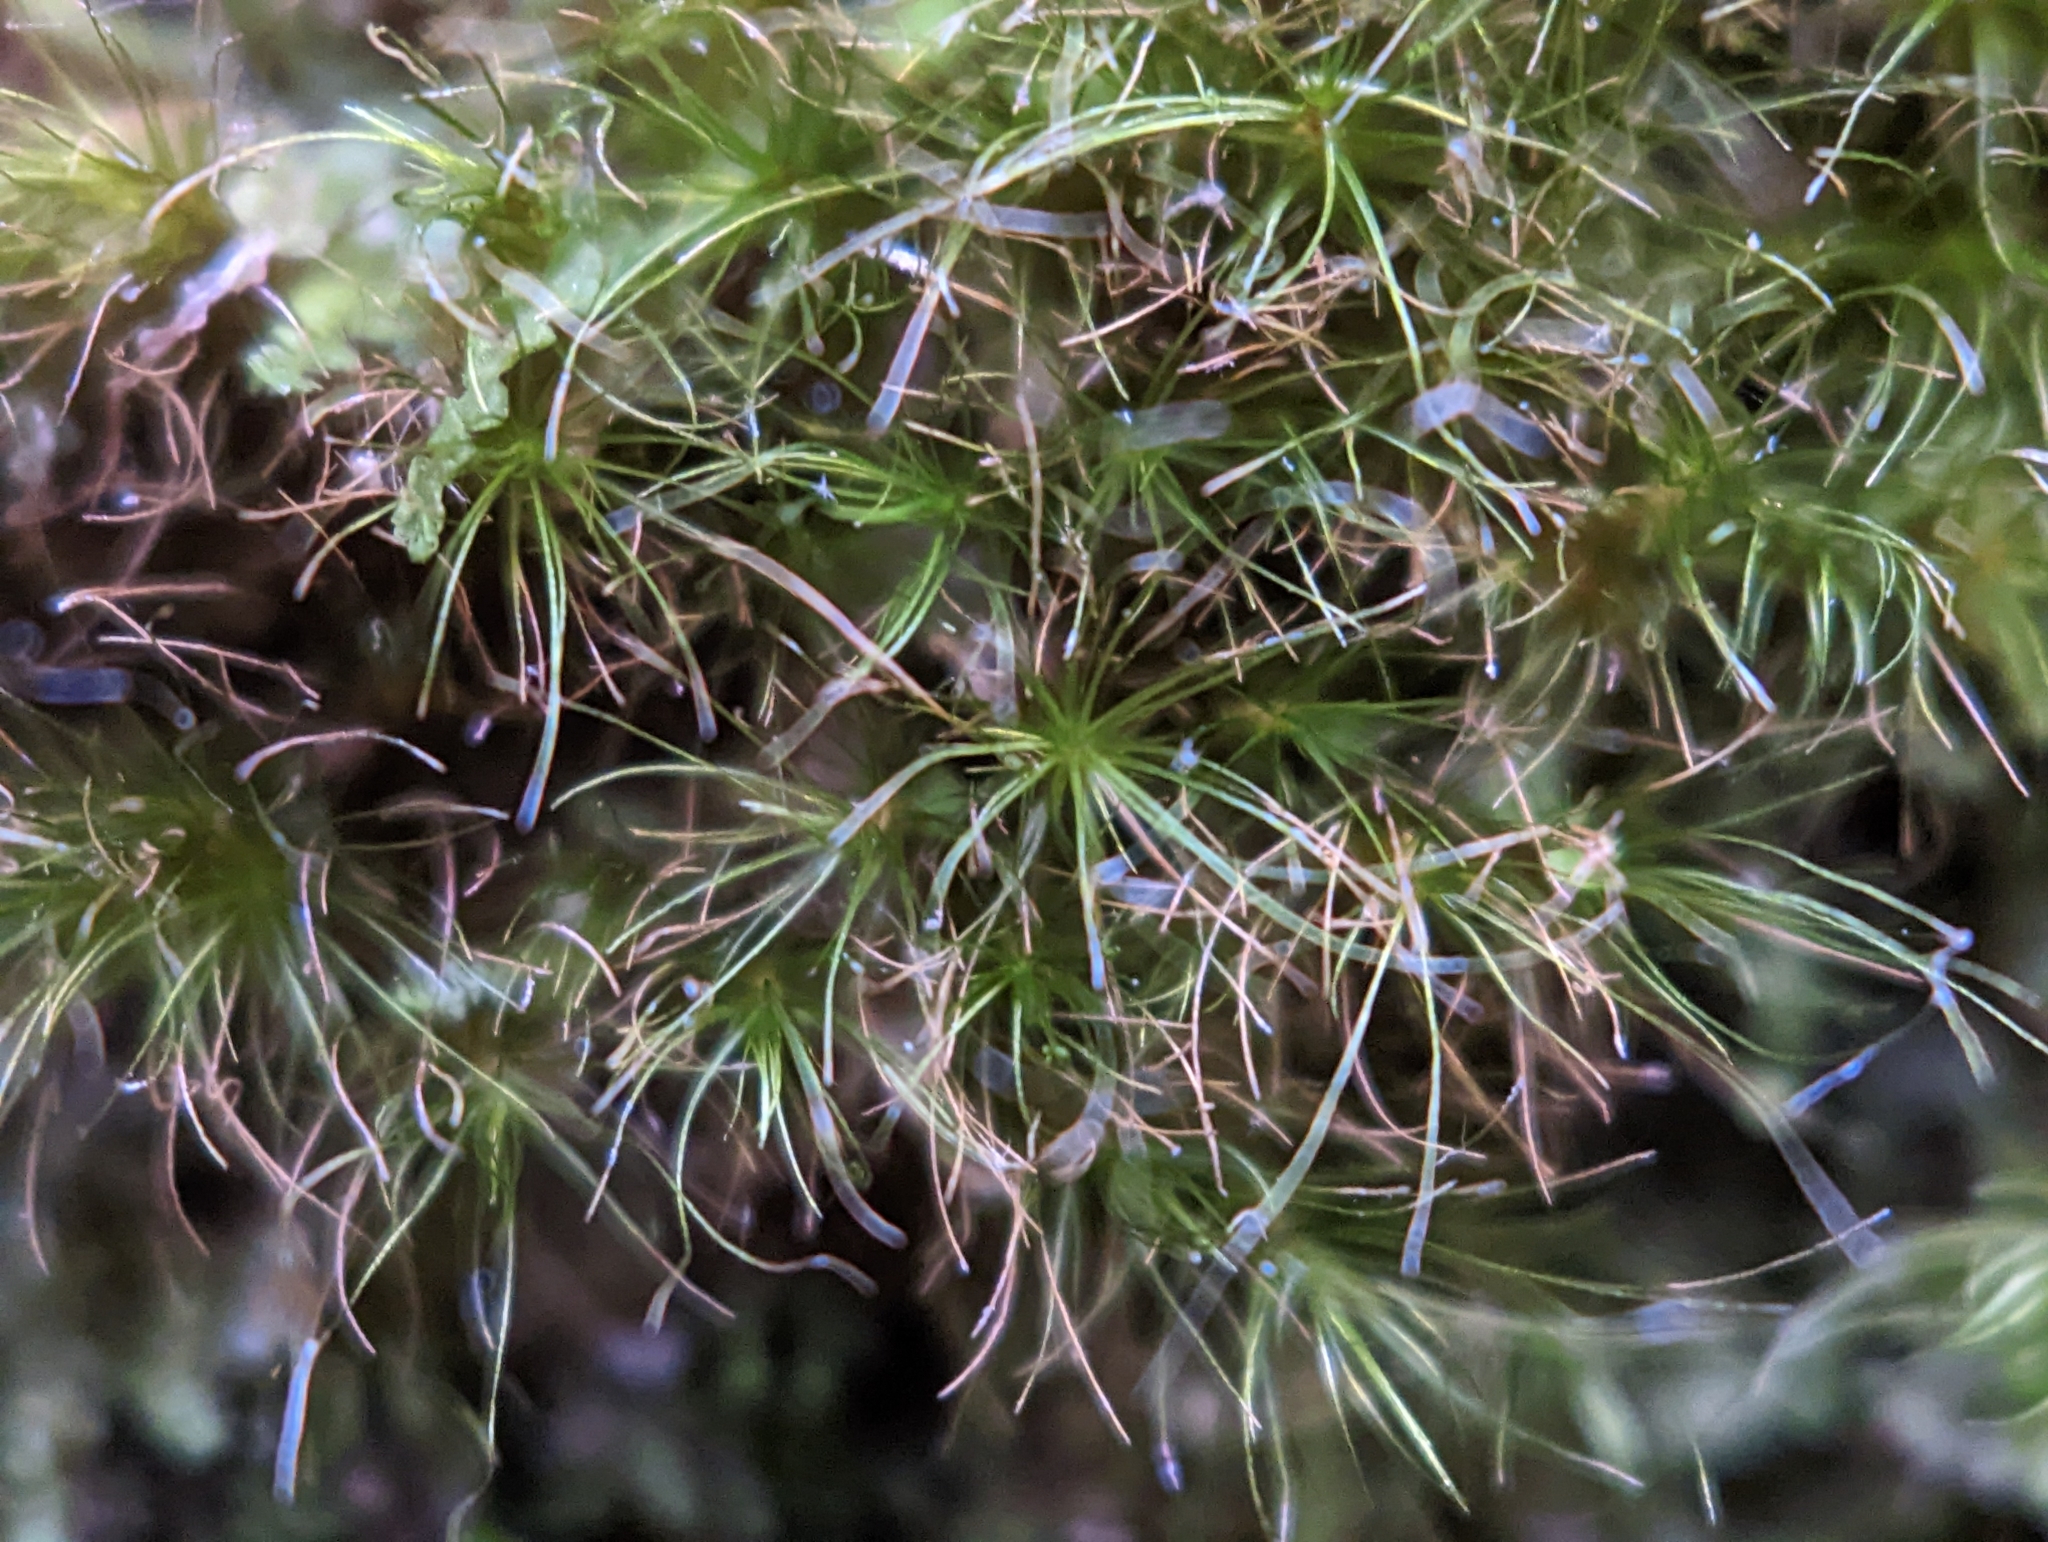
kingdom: Plantae
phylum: Bryophyta
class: Bryopsida
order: Dicranales
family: Leucobryaceae
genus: Dicranodontium
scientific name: Dicranodontium denudatum
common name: Beaked bow moss
